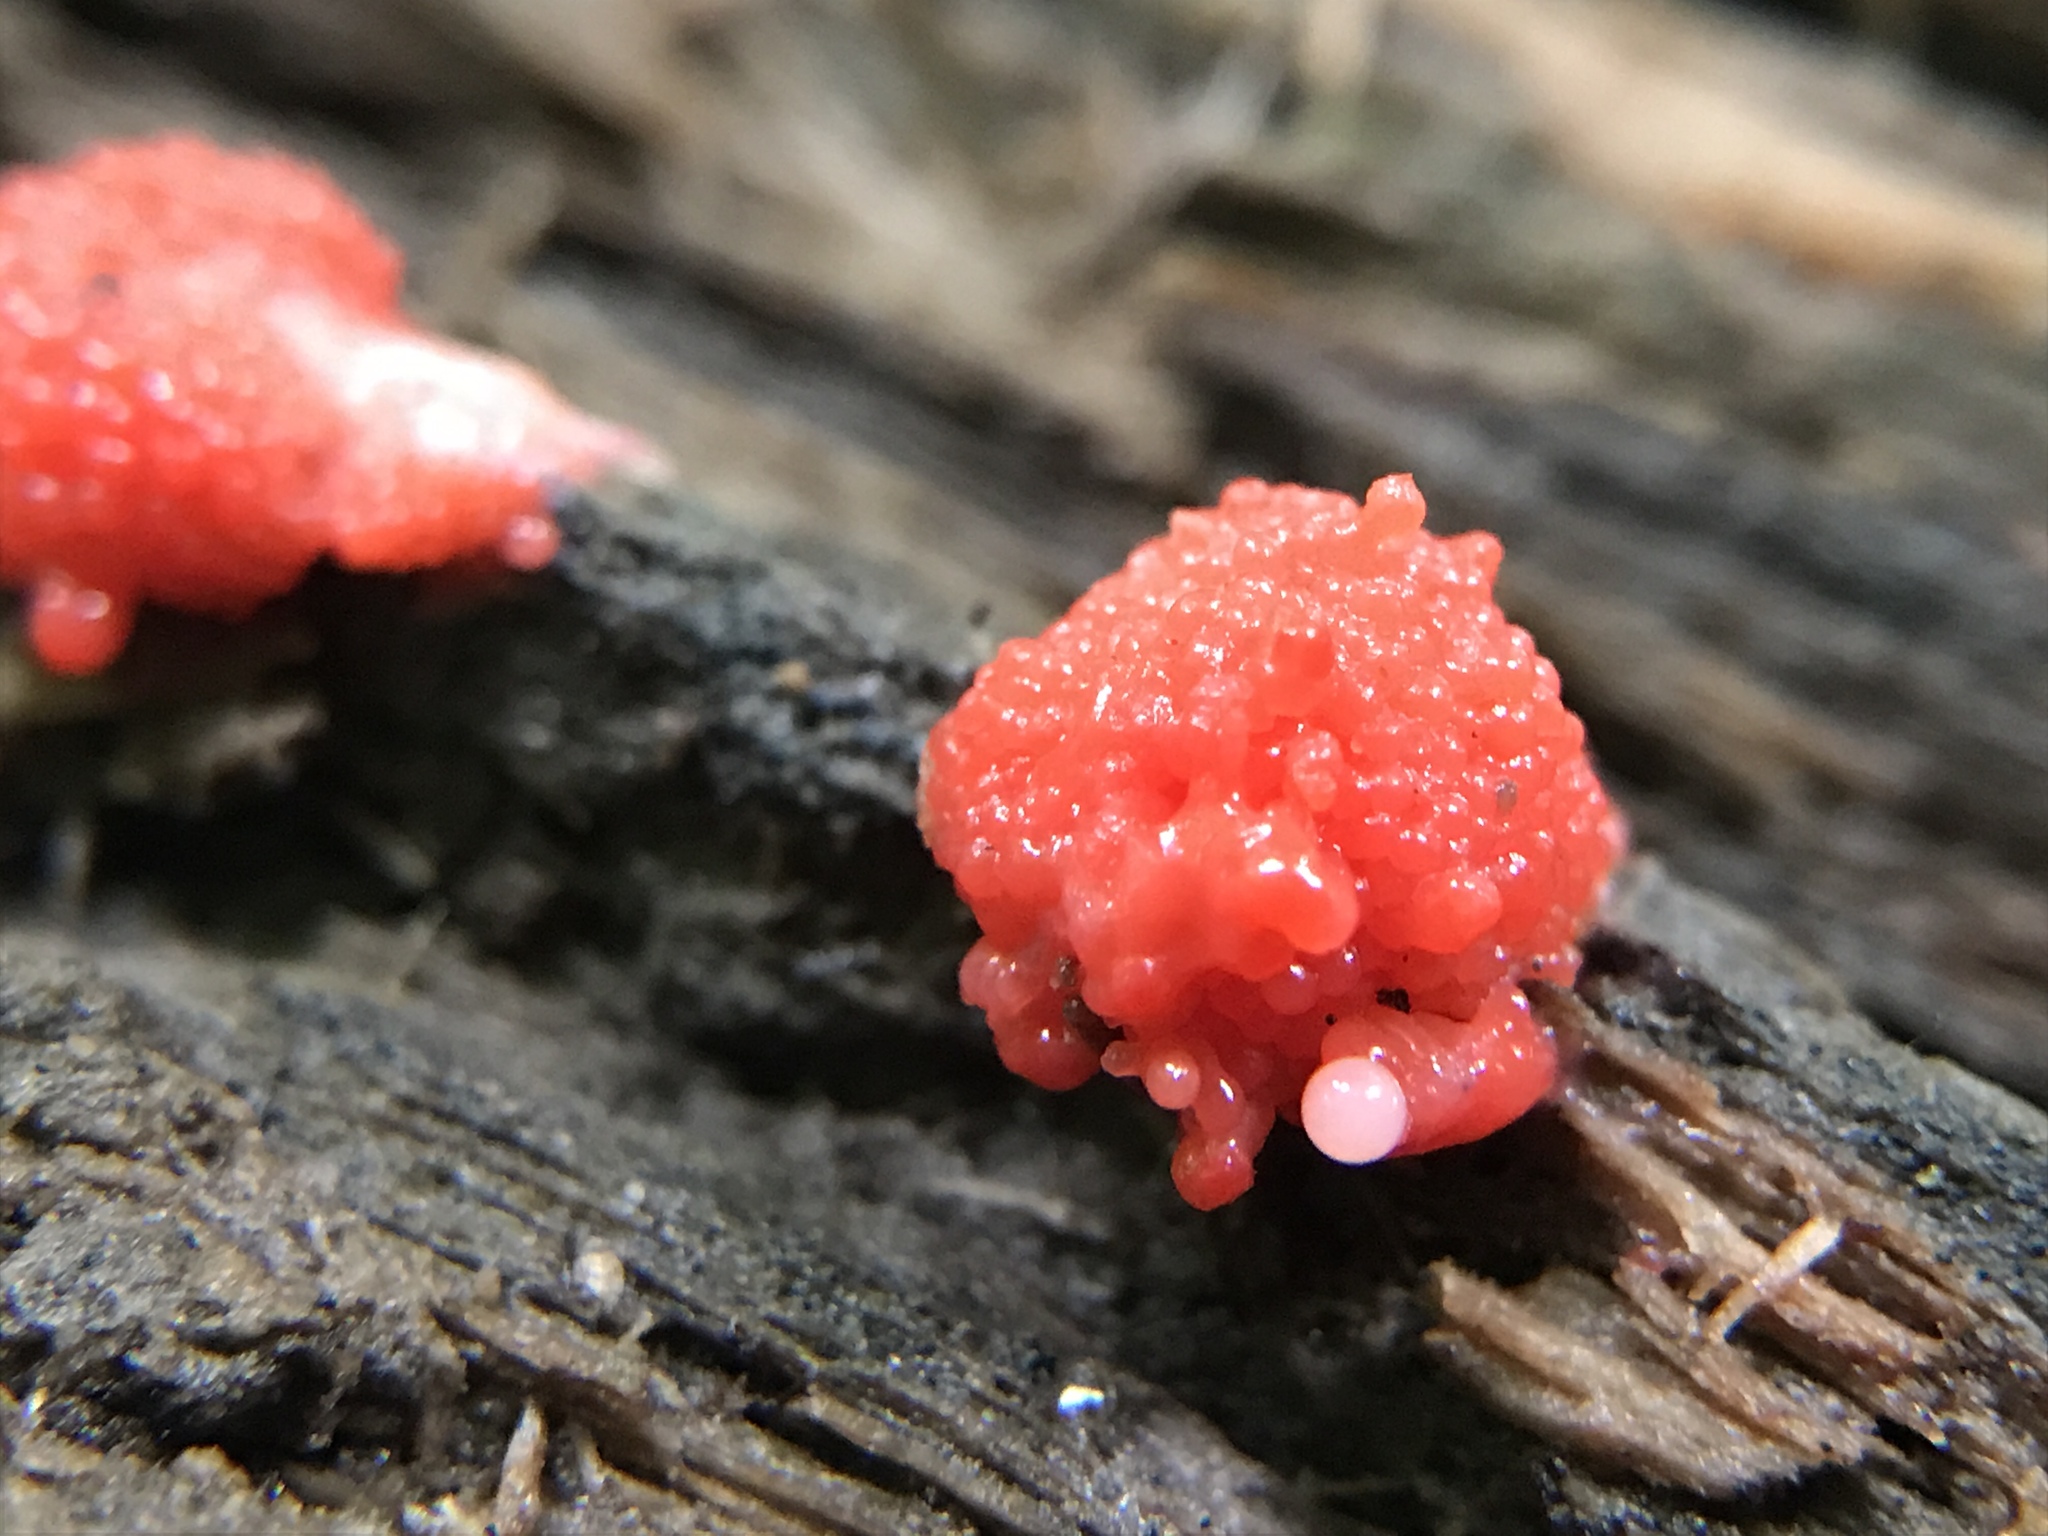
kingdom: Protozoa
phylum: Mycetozoa
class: Myxomycetes
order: Cribrariales
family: Tubiferaceae
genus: Tubifera
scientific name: Tubifera ferruginosa
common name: Red raspberry slime mold
